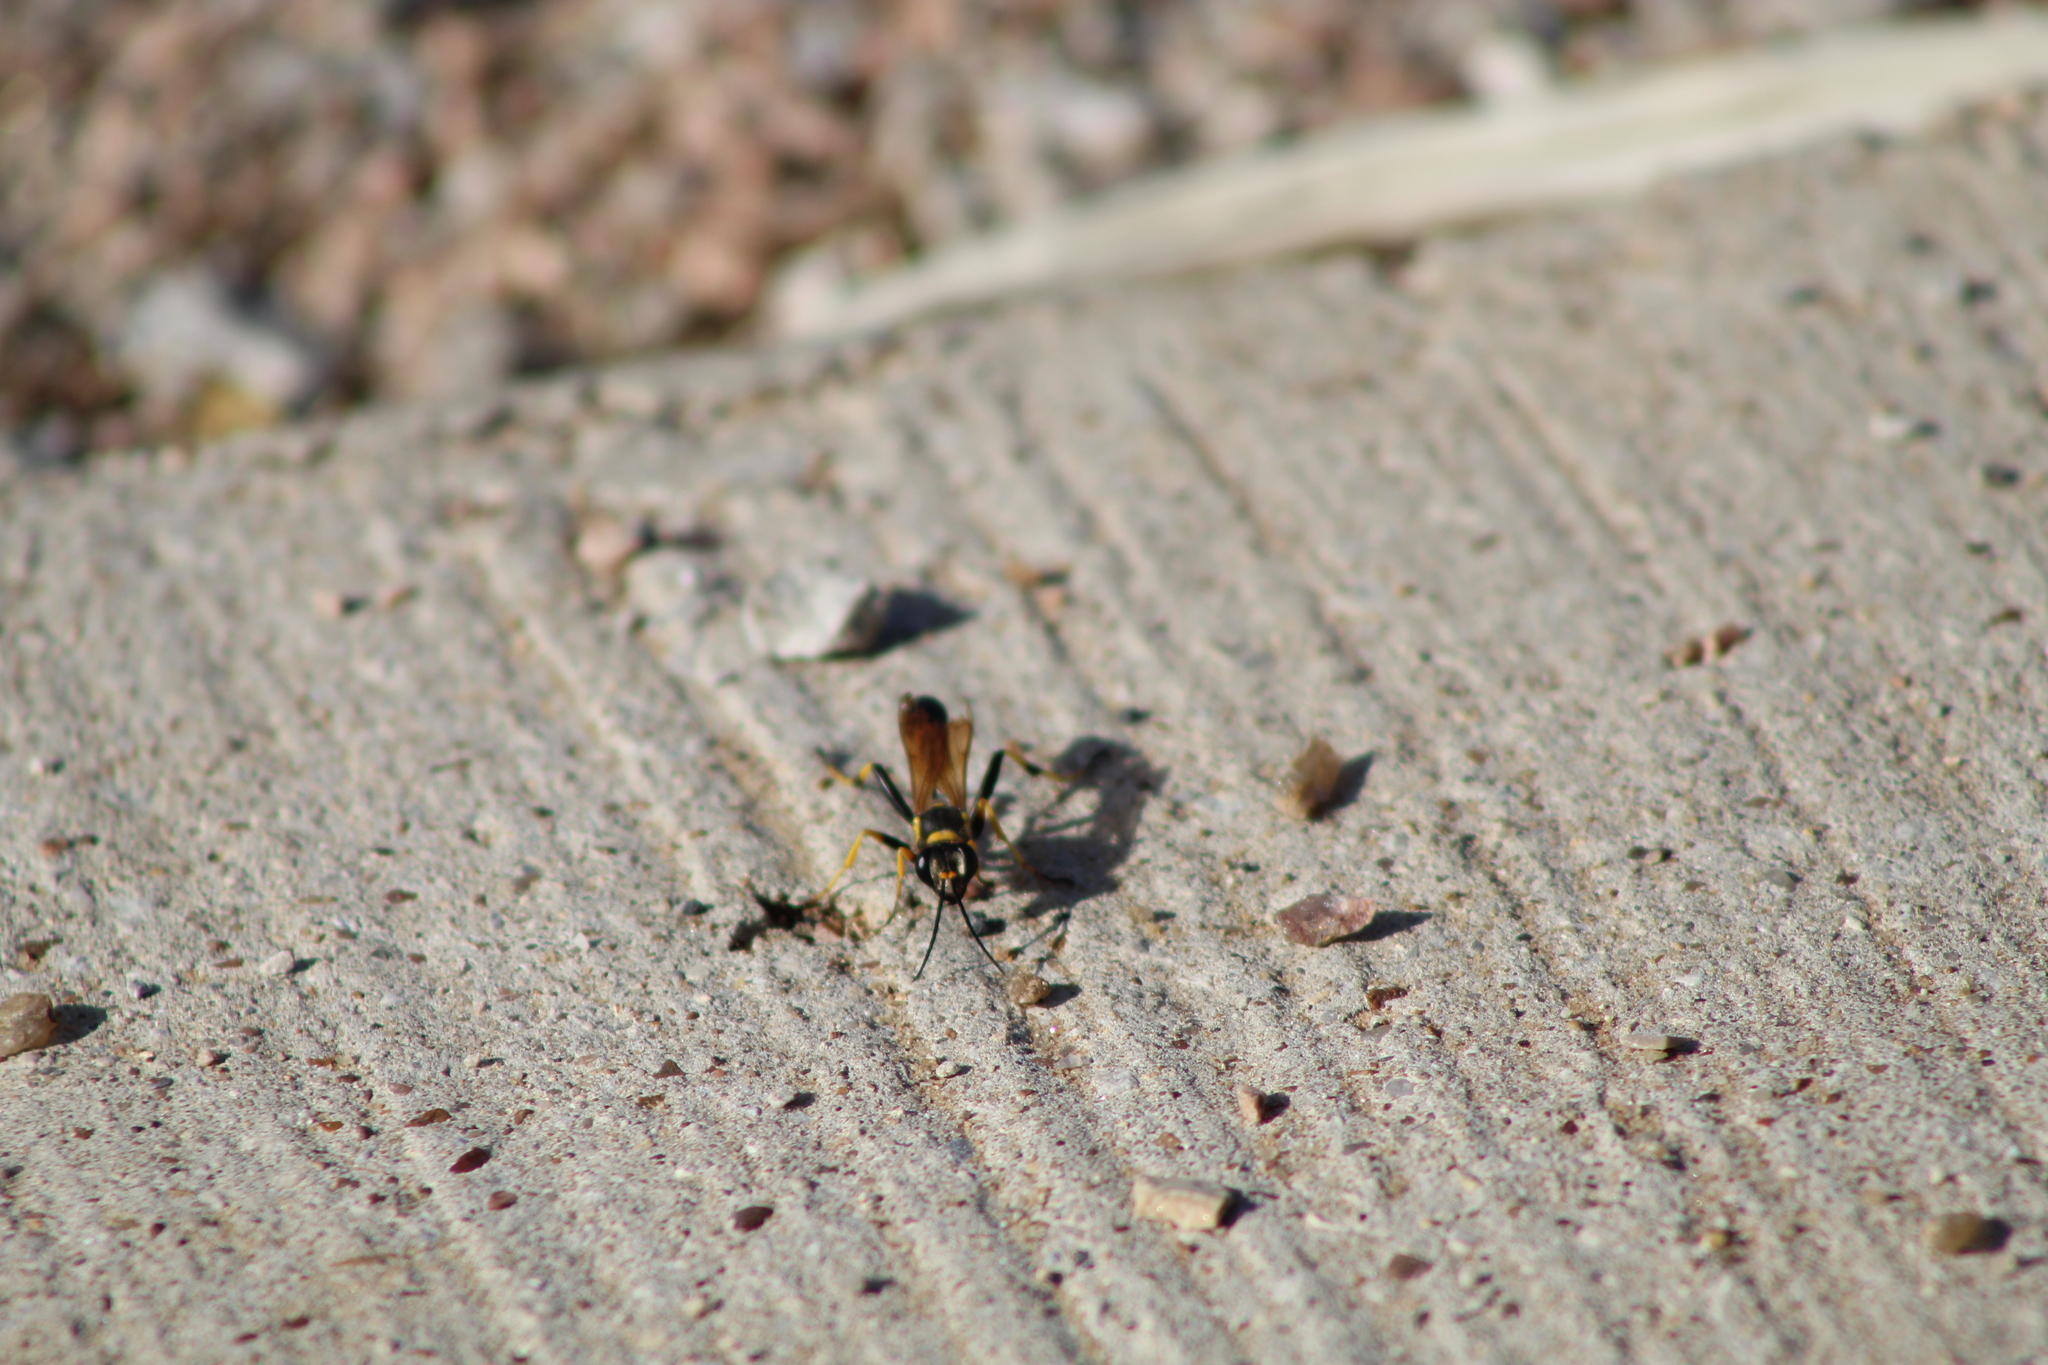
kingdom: Animalia
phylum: Arthropoda
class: Insecta
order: Hymenoptera
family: Sphecidae
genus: Sceliphron
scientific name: Sceliphron caementarium
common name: Mud dauber
